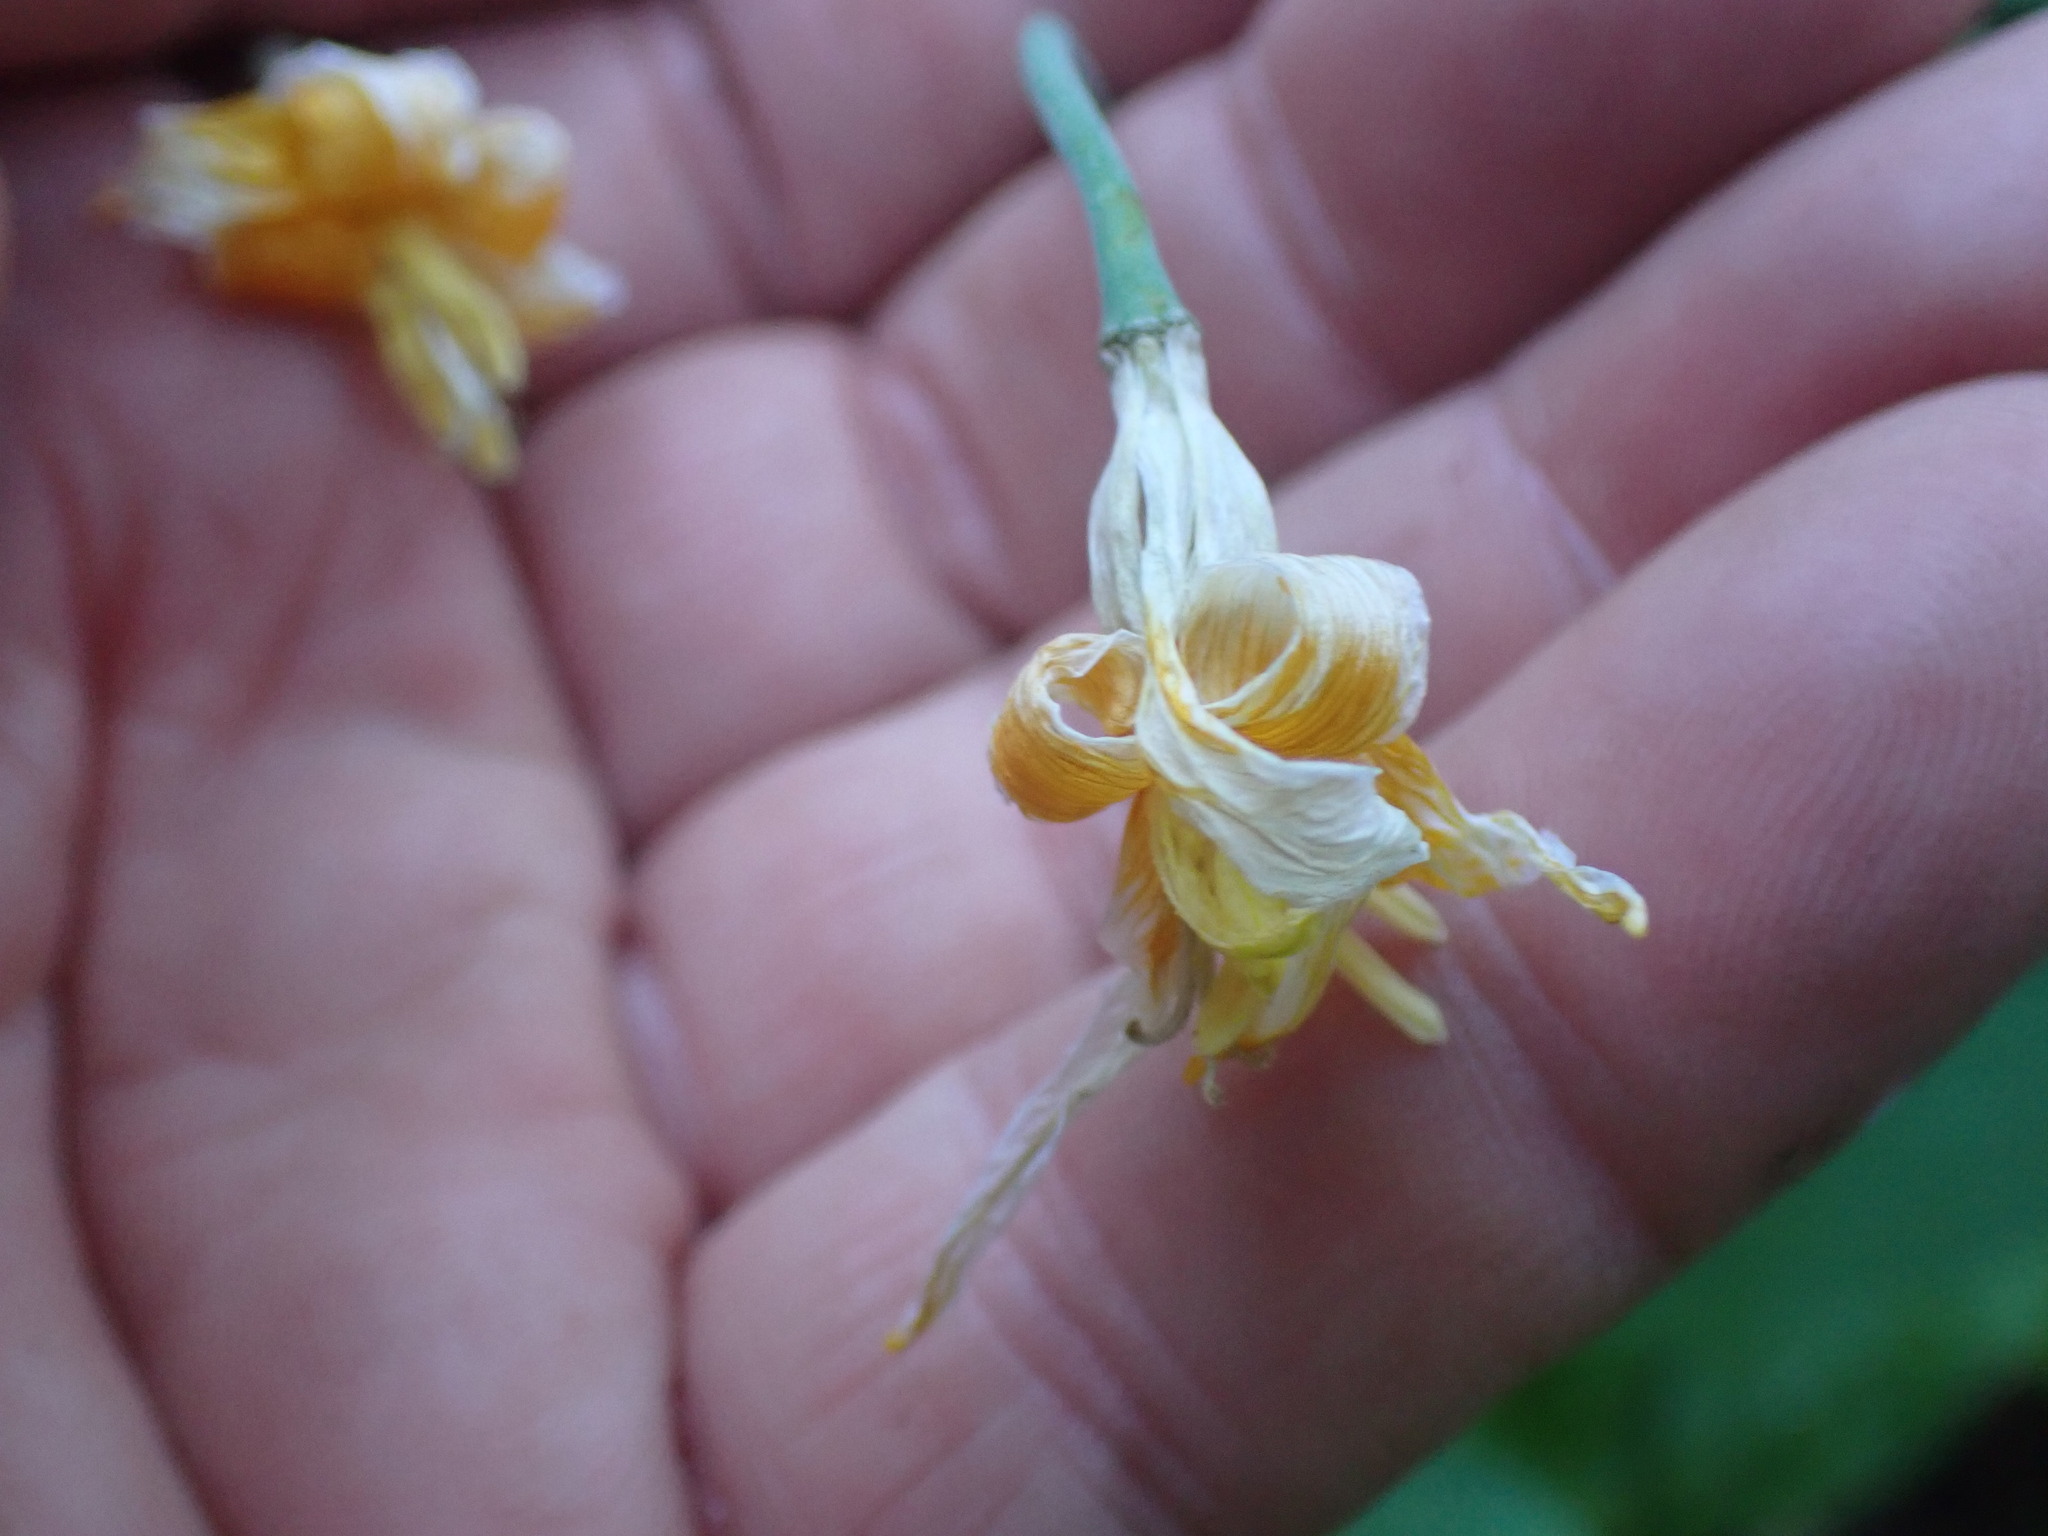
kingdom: Plantae
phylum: Tracheophyta
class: Liliopsida
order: Liliales
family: Liliaceae
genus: Erythronium
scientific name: Erythronium grandiflorum
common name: Avalanche-lily
